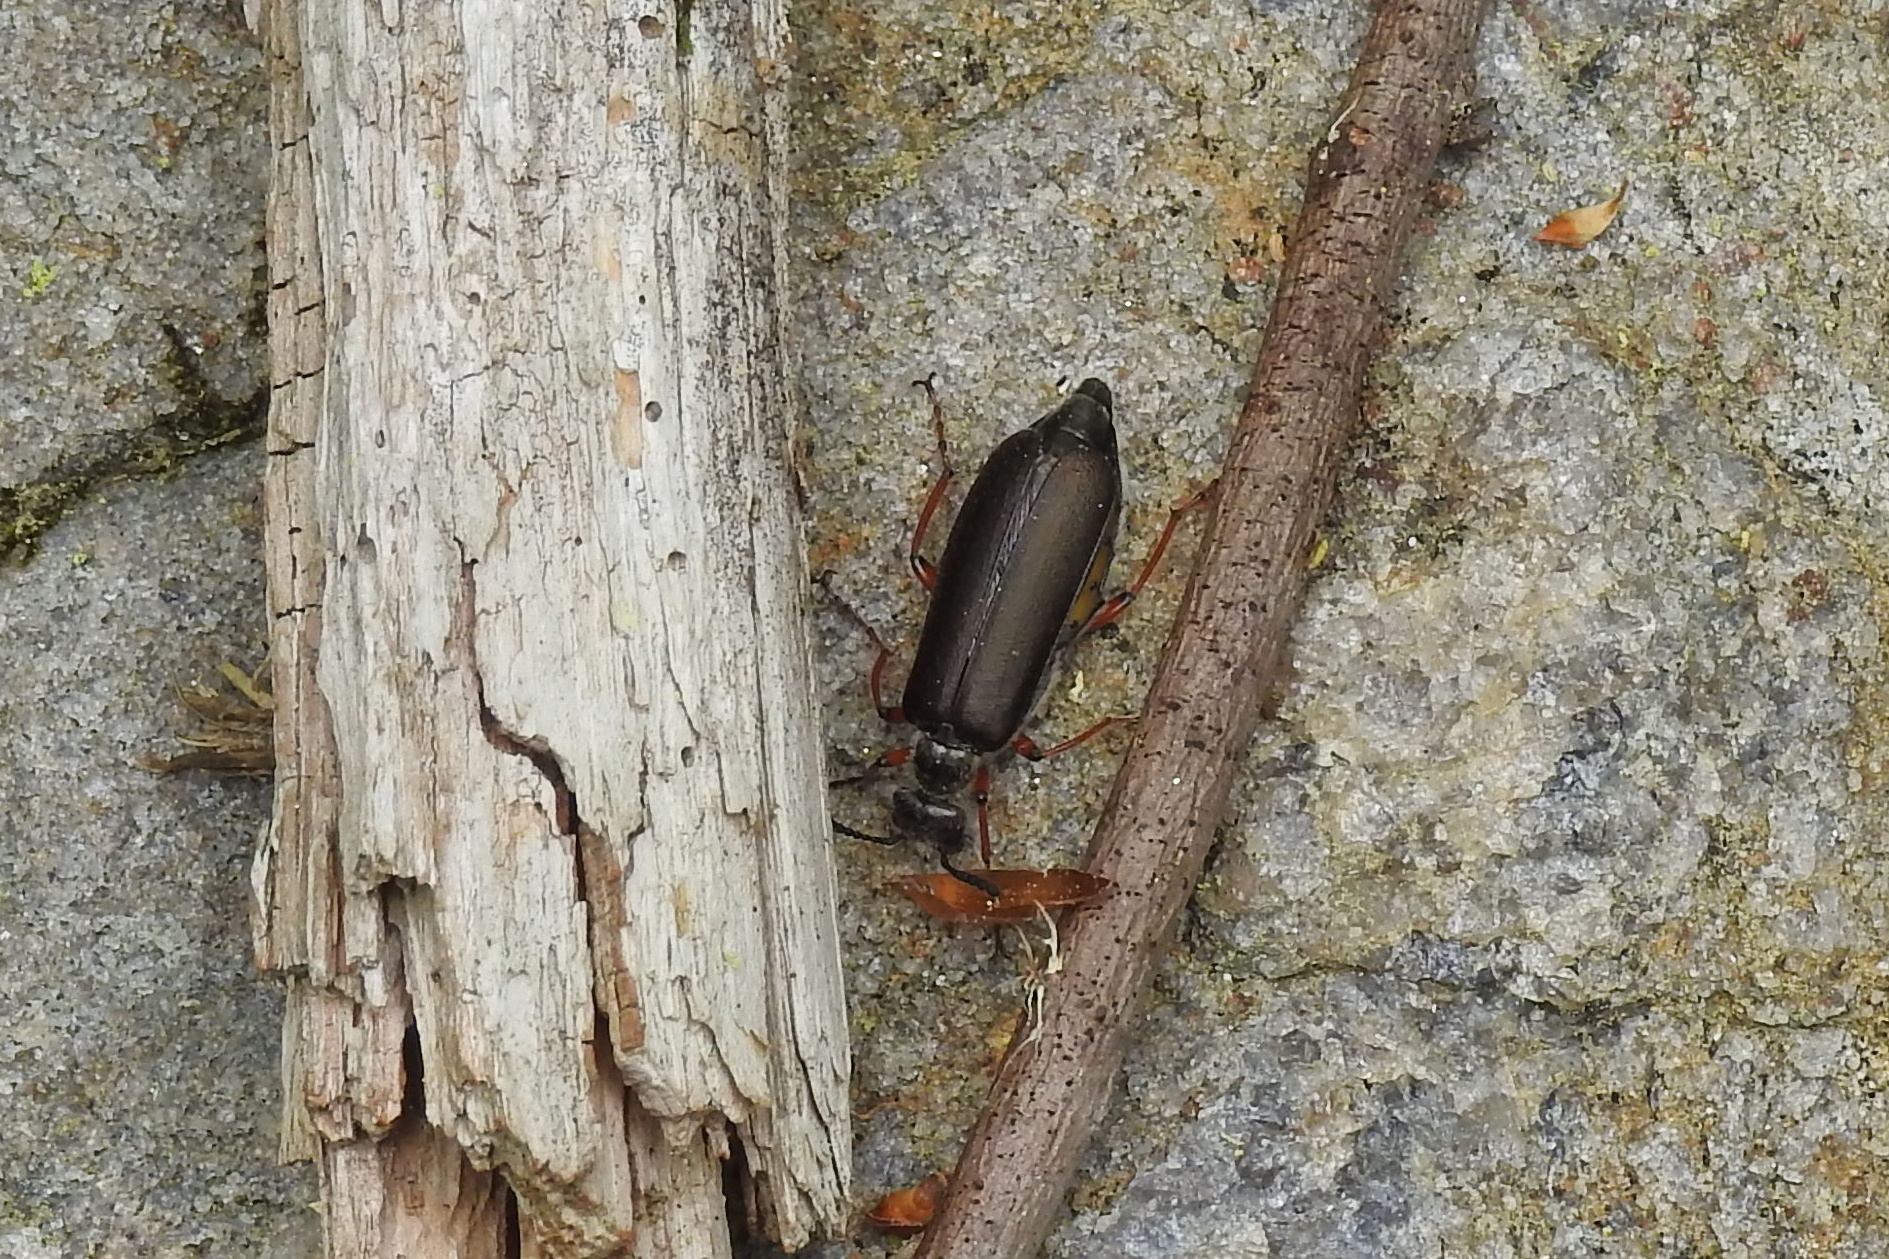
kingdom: Animalia
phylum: Arthropoda
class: Insecta
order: Coleoptera
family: Meloidae
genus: Lytta
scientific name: Lytta aenea
